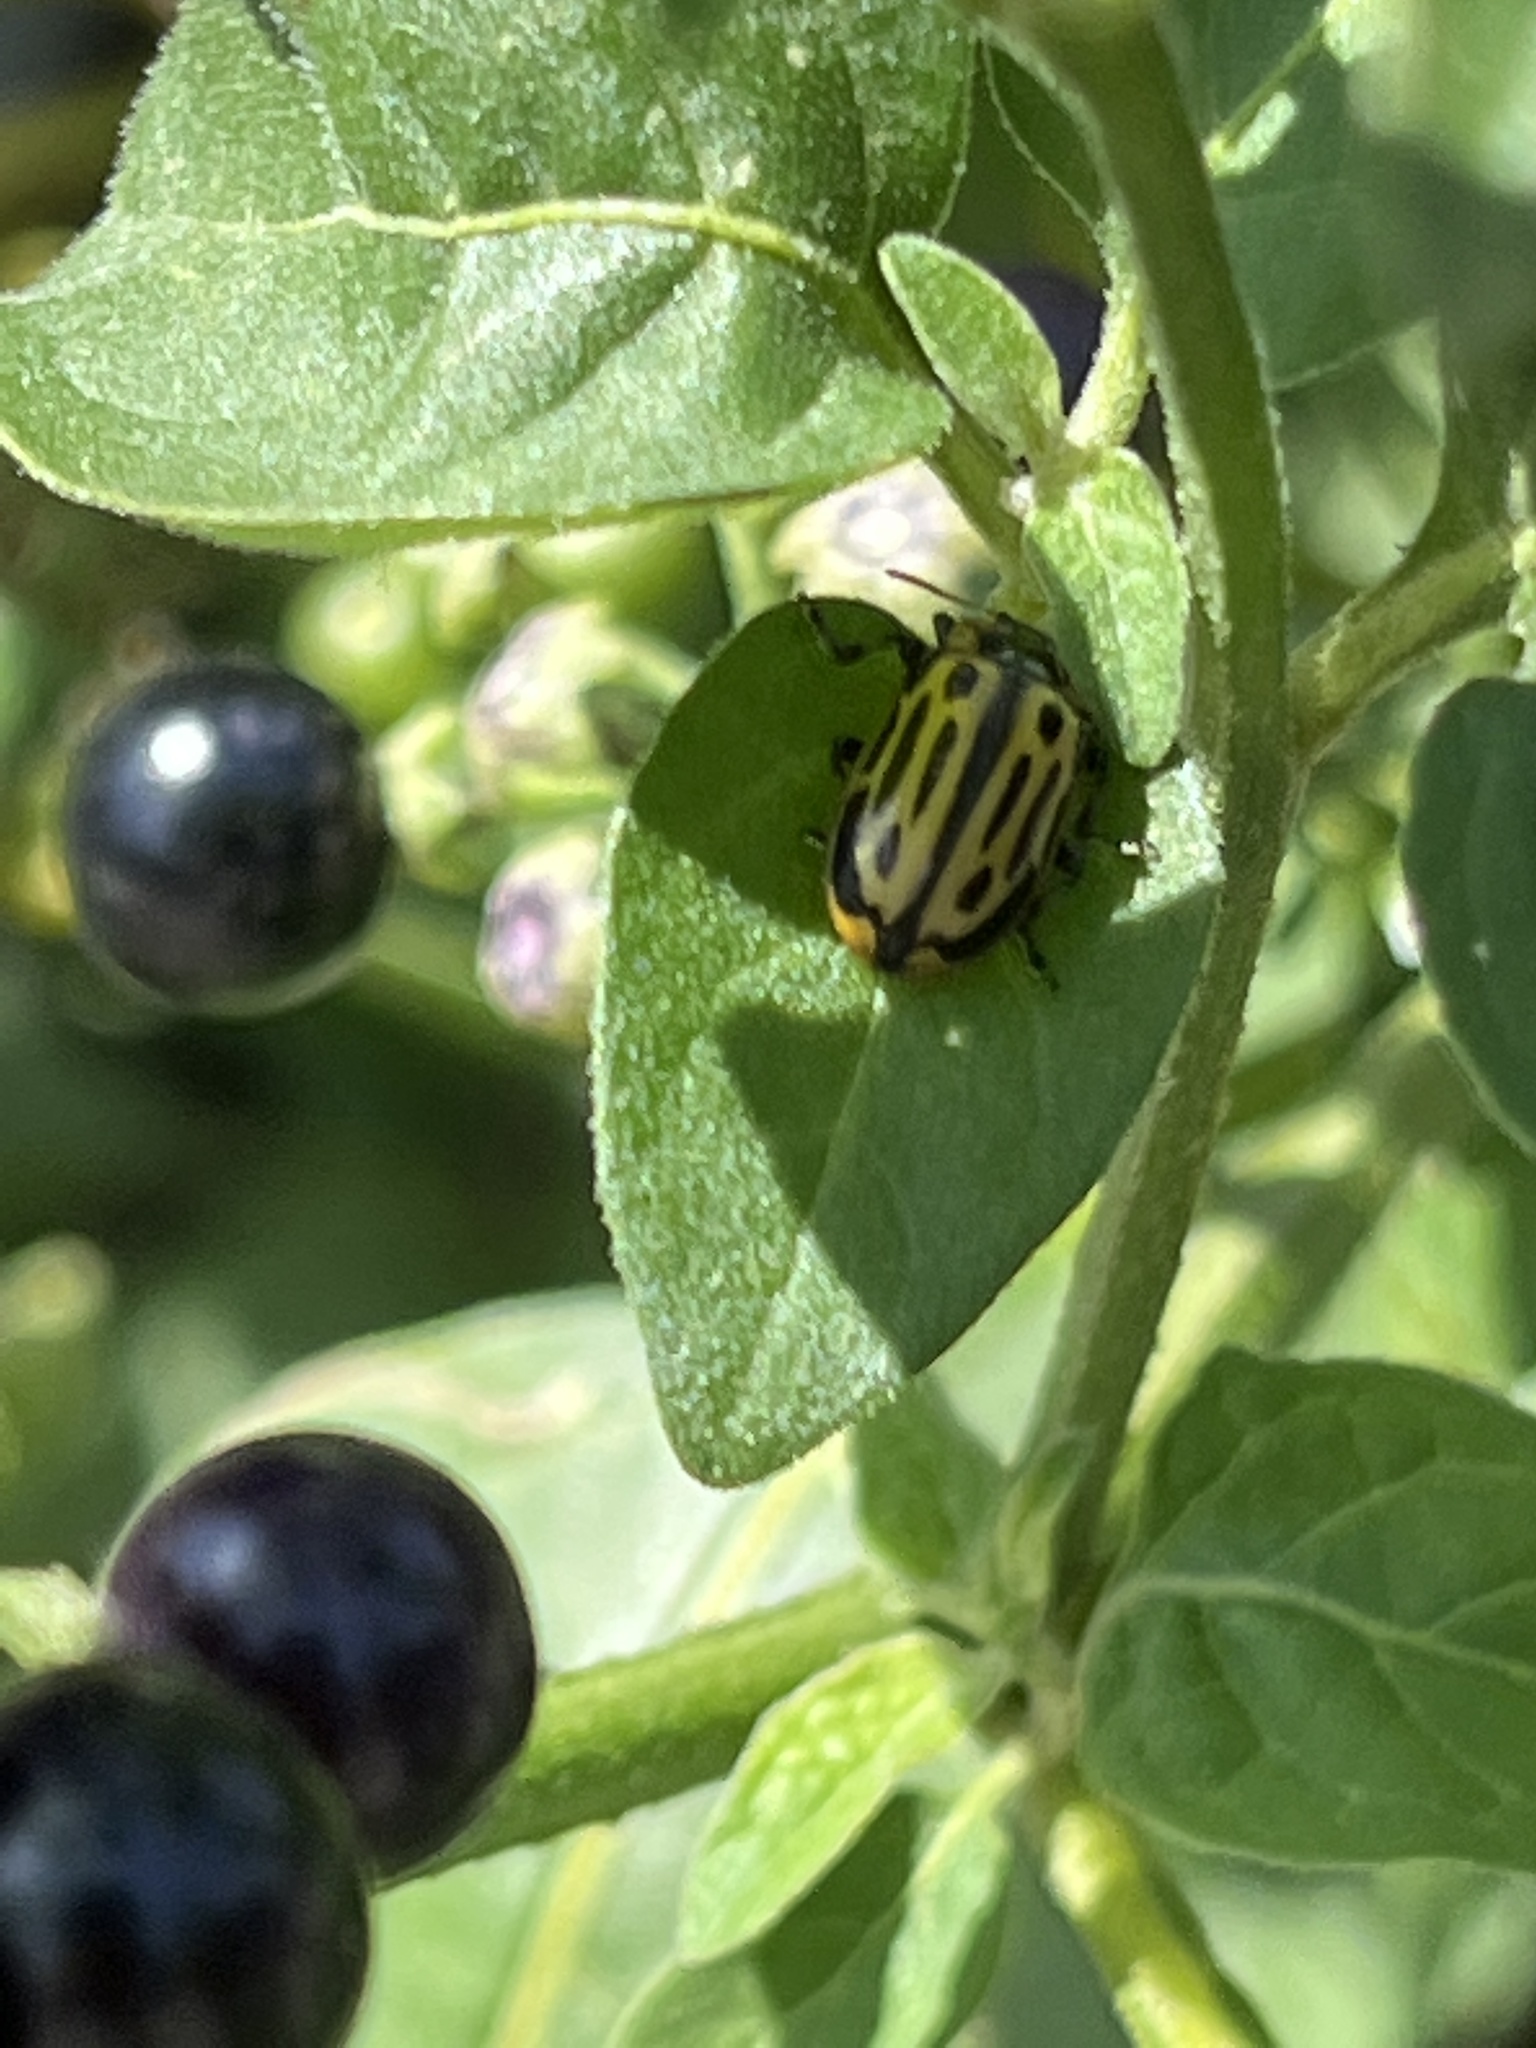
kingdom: Animalia
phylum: Arthropoda
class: Insecta
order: Coleoptera
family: Chrysomelidae
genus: Aethiopocassis
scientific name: Aethiopocassis scripta
